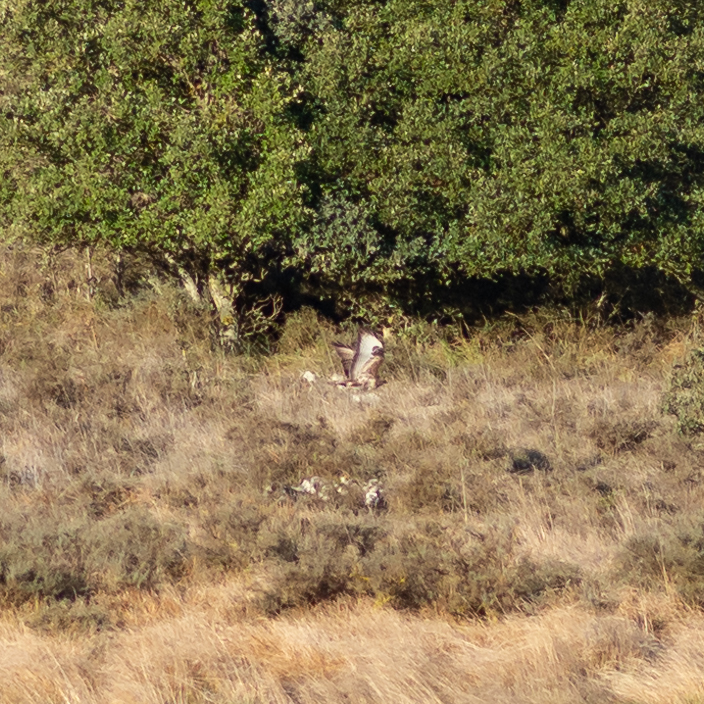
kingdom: Animalia
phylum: Chordata
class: Aves
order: Accipitriformes
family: Accipitridae
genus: Buteo
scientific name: Buteo buteo
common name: Common buzzard
